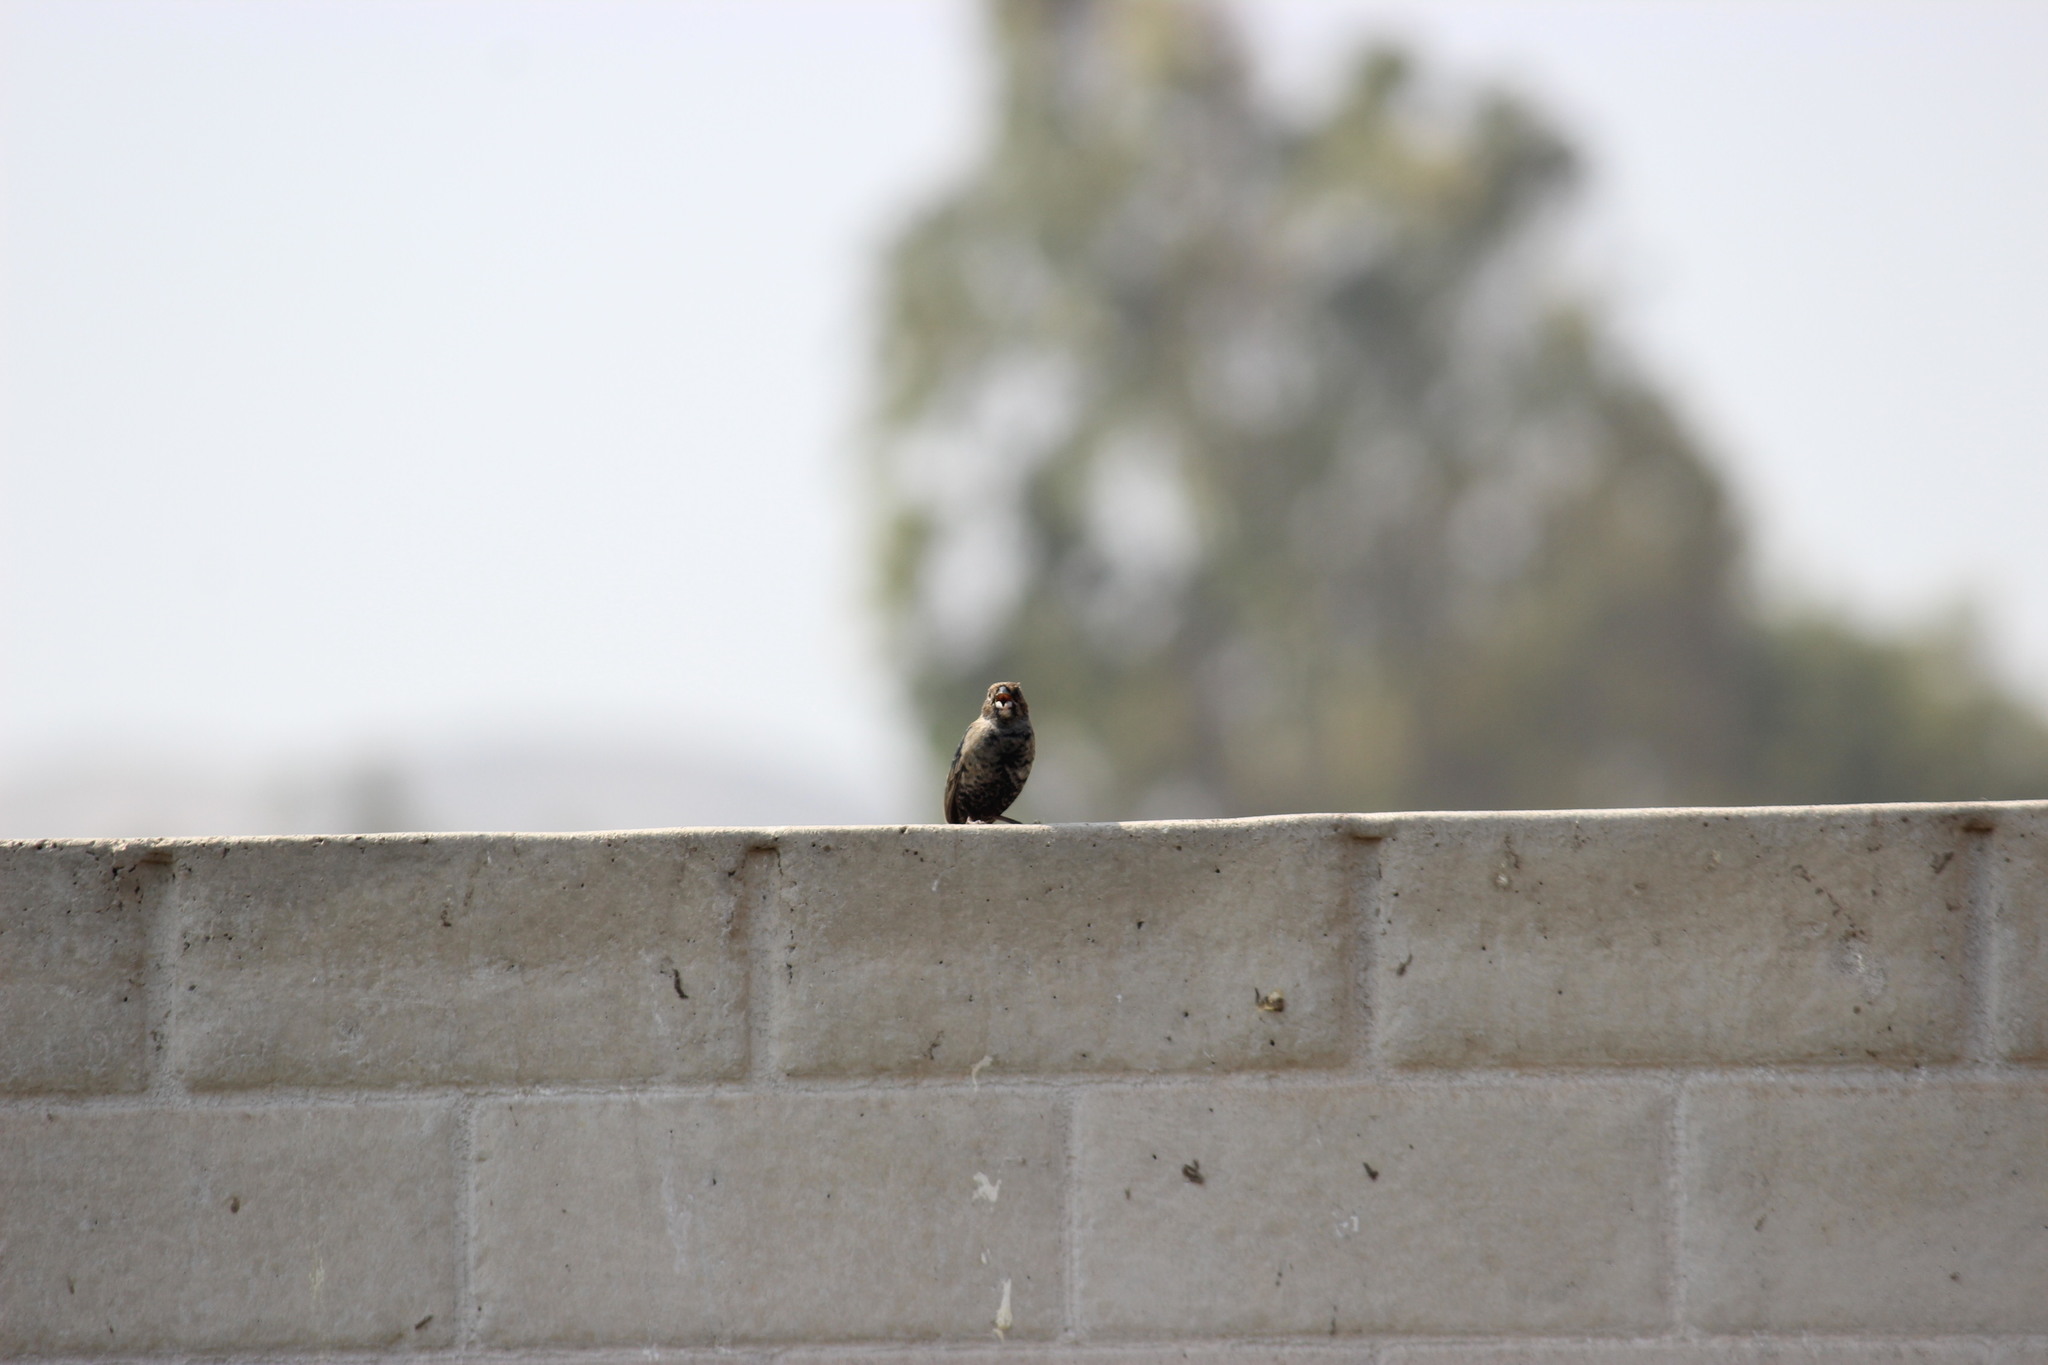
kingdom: Animalia
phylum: Chordata
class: Aves
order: Passeriformes
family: Thraupidae
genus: Volatinia
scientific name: Volatinia jacarina
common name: Blue-black grassquit
